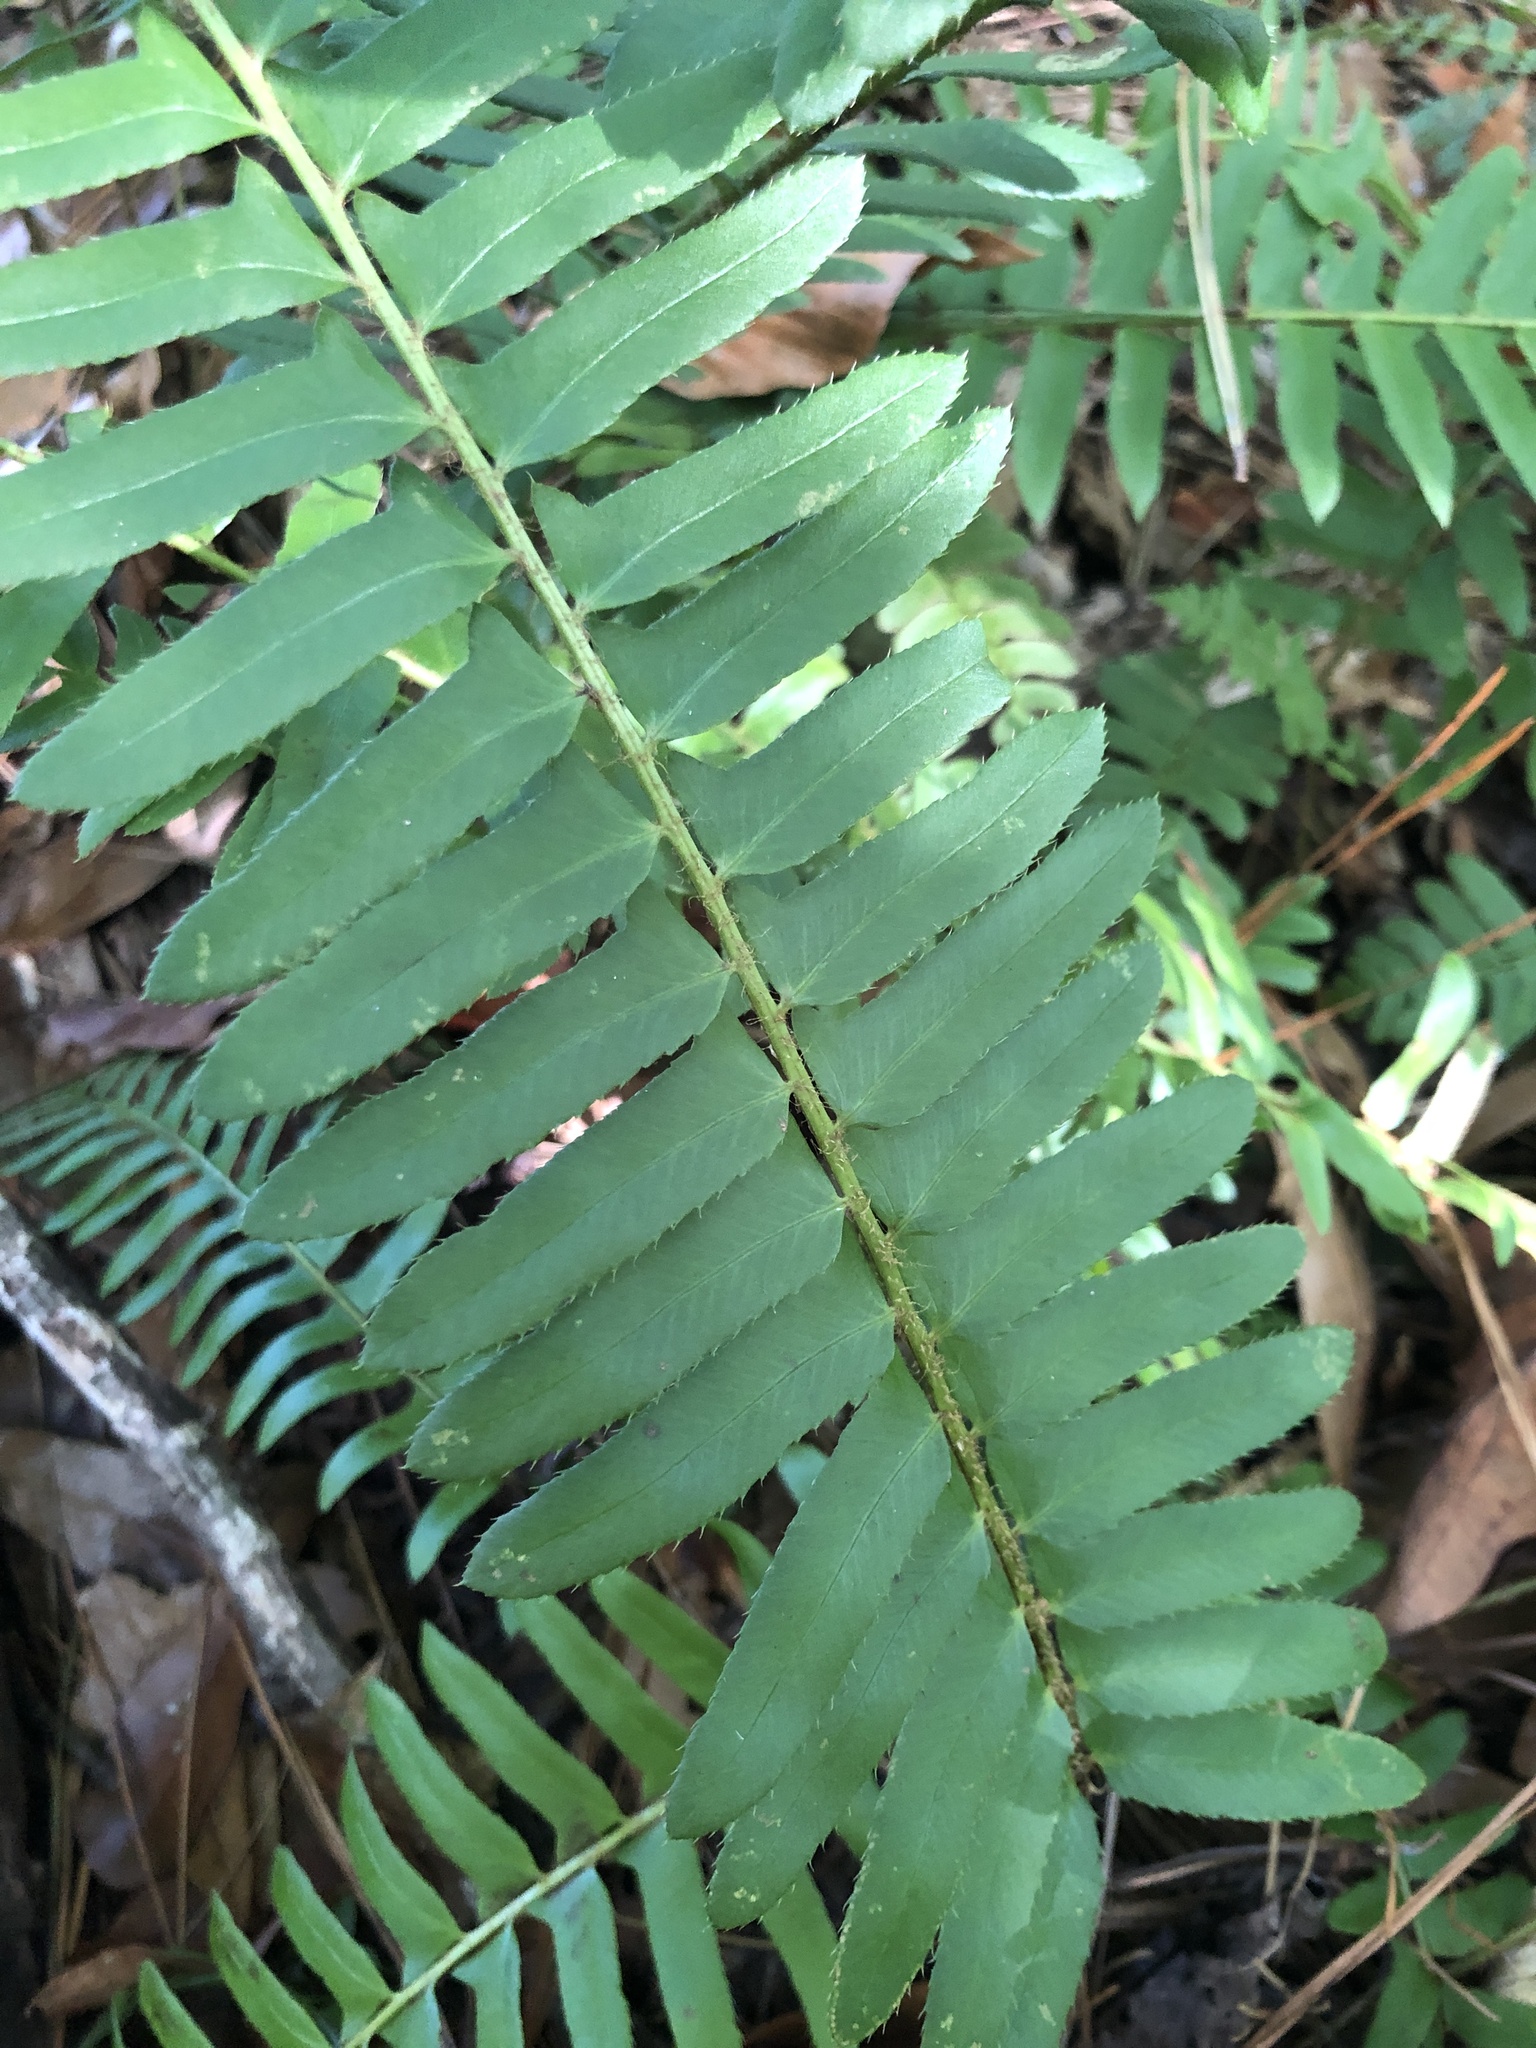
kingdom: Plantae
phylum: Tracheophyta
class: Polypodiopsida
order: Polypodiales
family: Dryopteridaceae
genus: Polystichum
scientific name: Polystichum acrostichoides
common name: Christmas fern
